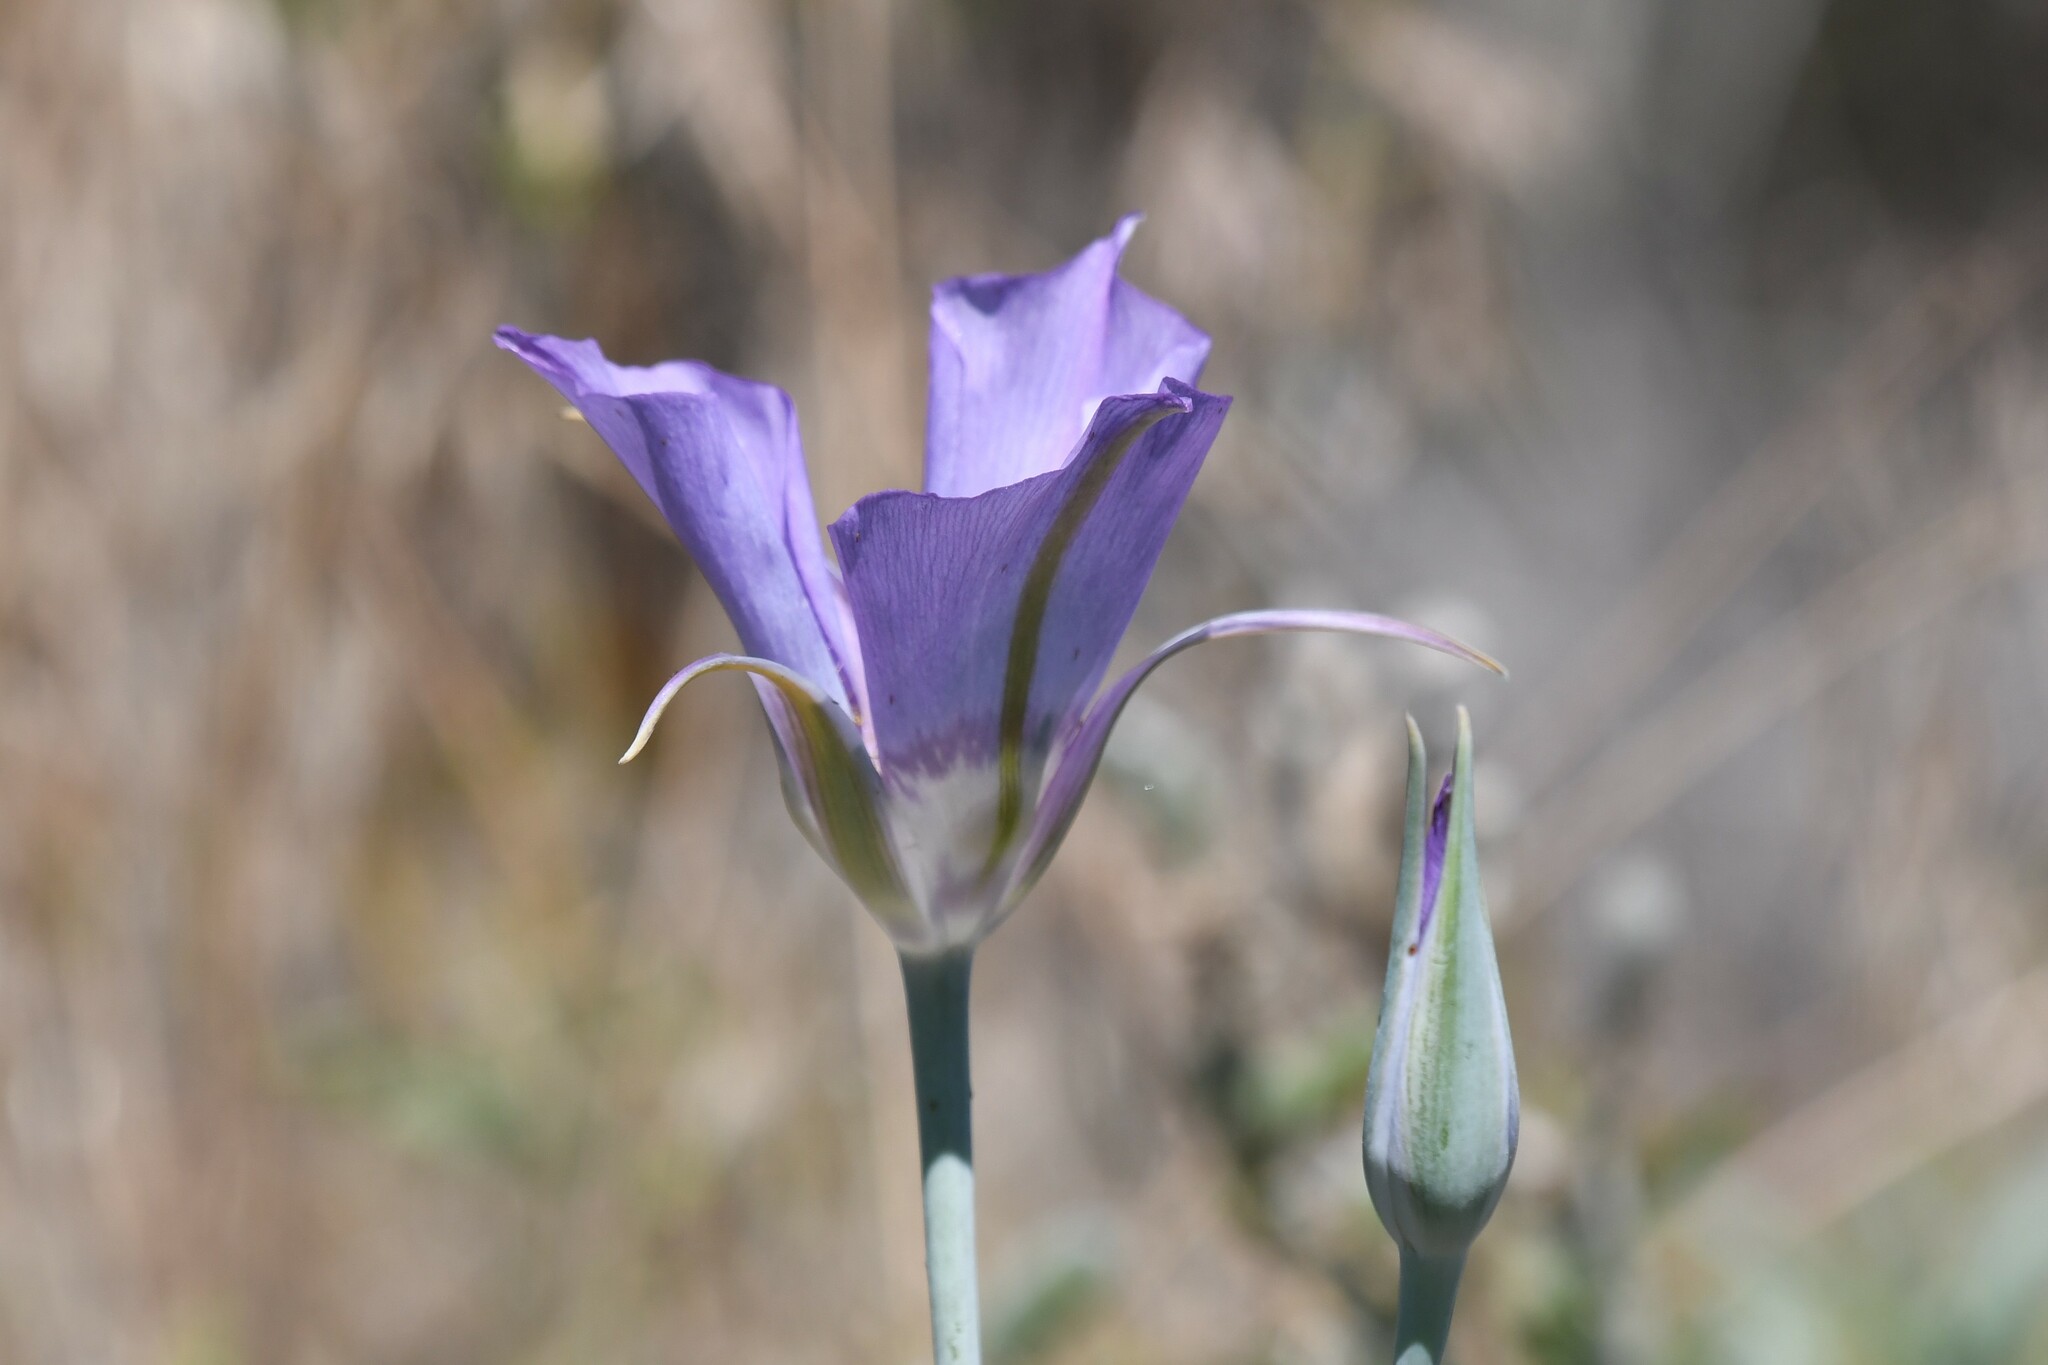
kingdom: Plantae
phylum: Tracheophyta
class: Liliopsida
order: Liliales
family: Liliaceae
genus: Calochortus
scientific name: Calochortus macrocarpus
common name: Green-band mariposa lily
